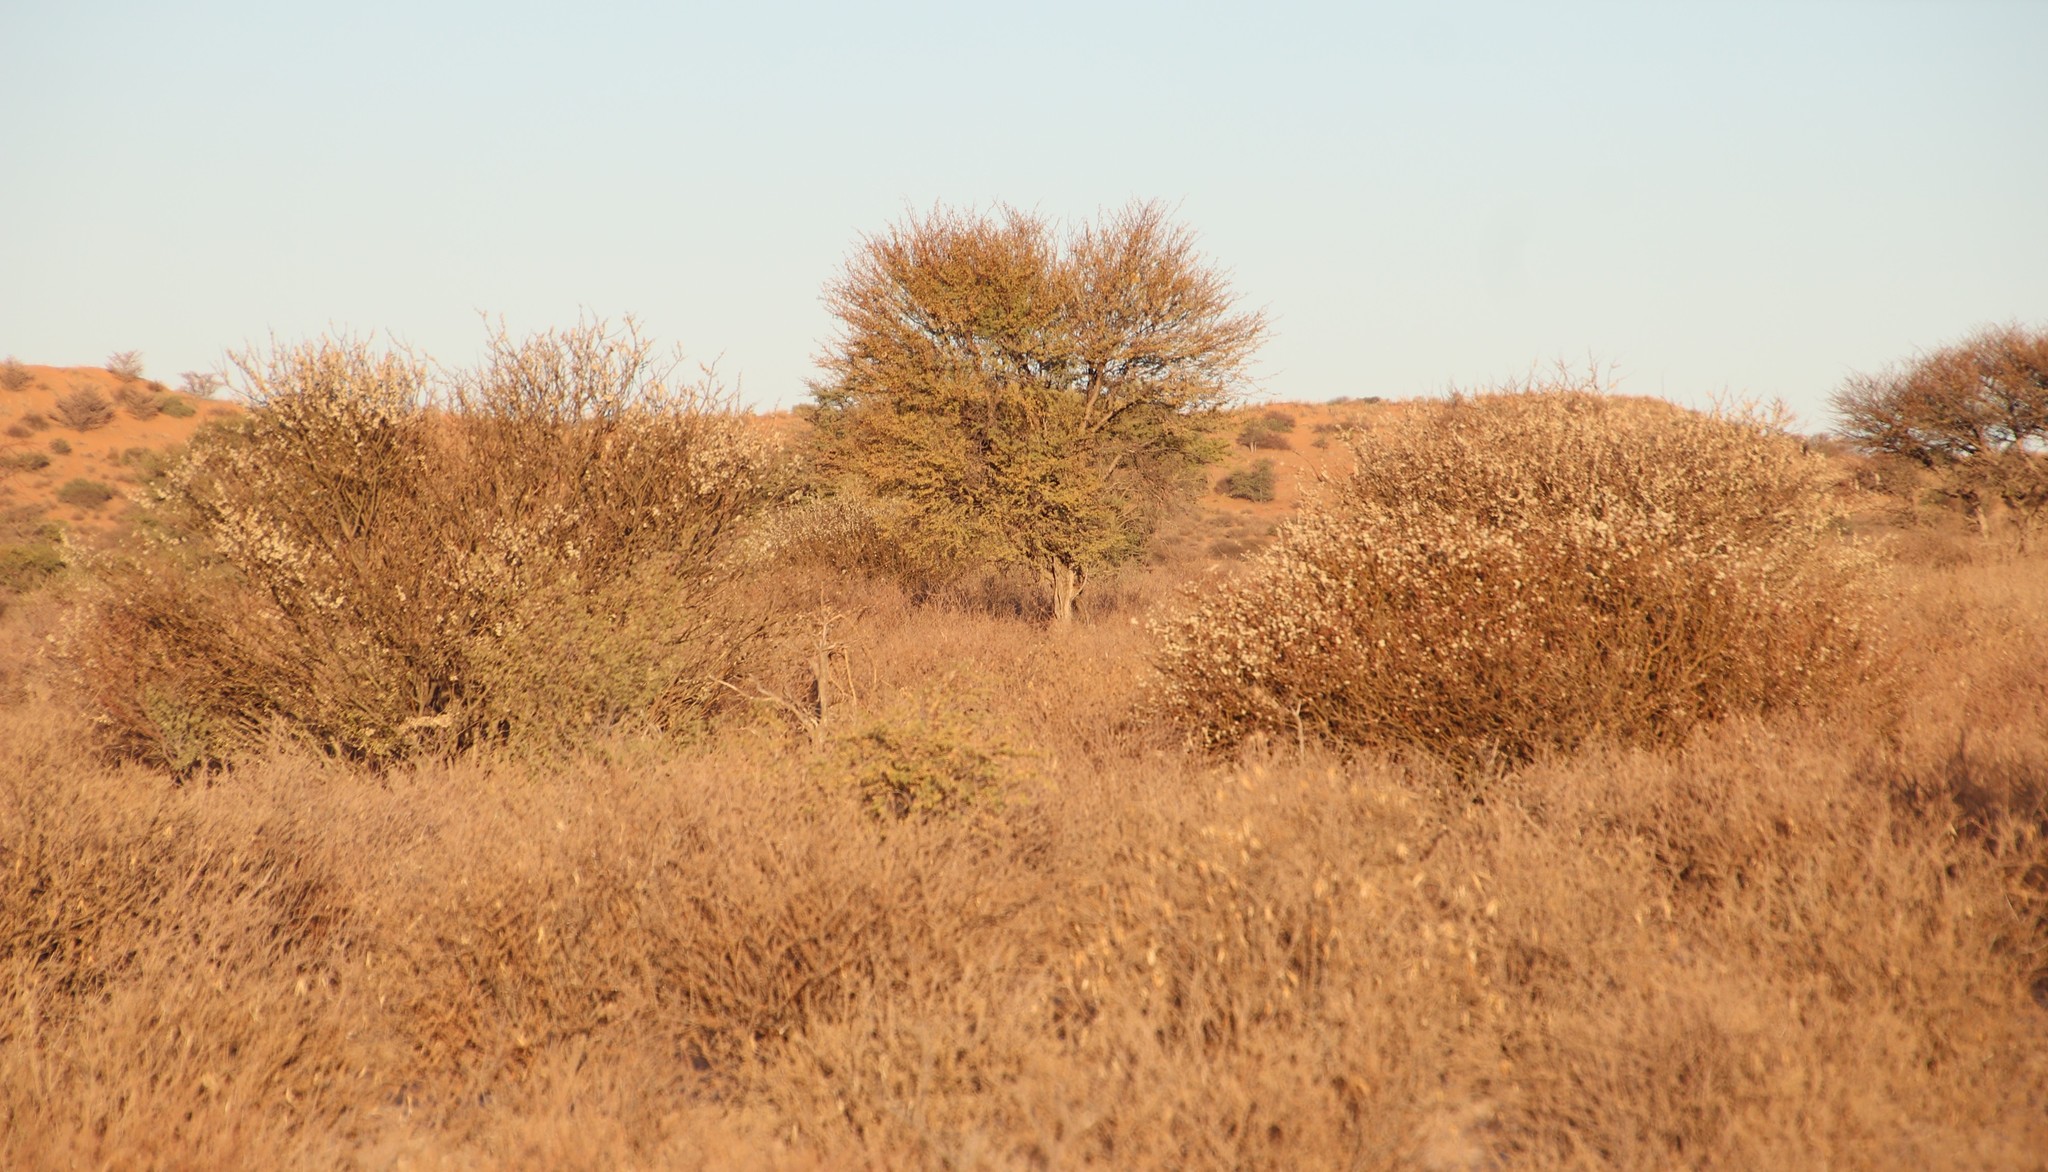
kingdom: Plantae
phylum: Tracheophyta
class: Magnoliopsida
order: Fabales
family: Fabaceae
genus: Senegalia
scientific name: Senegalia mellifera
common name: Hookthorn
